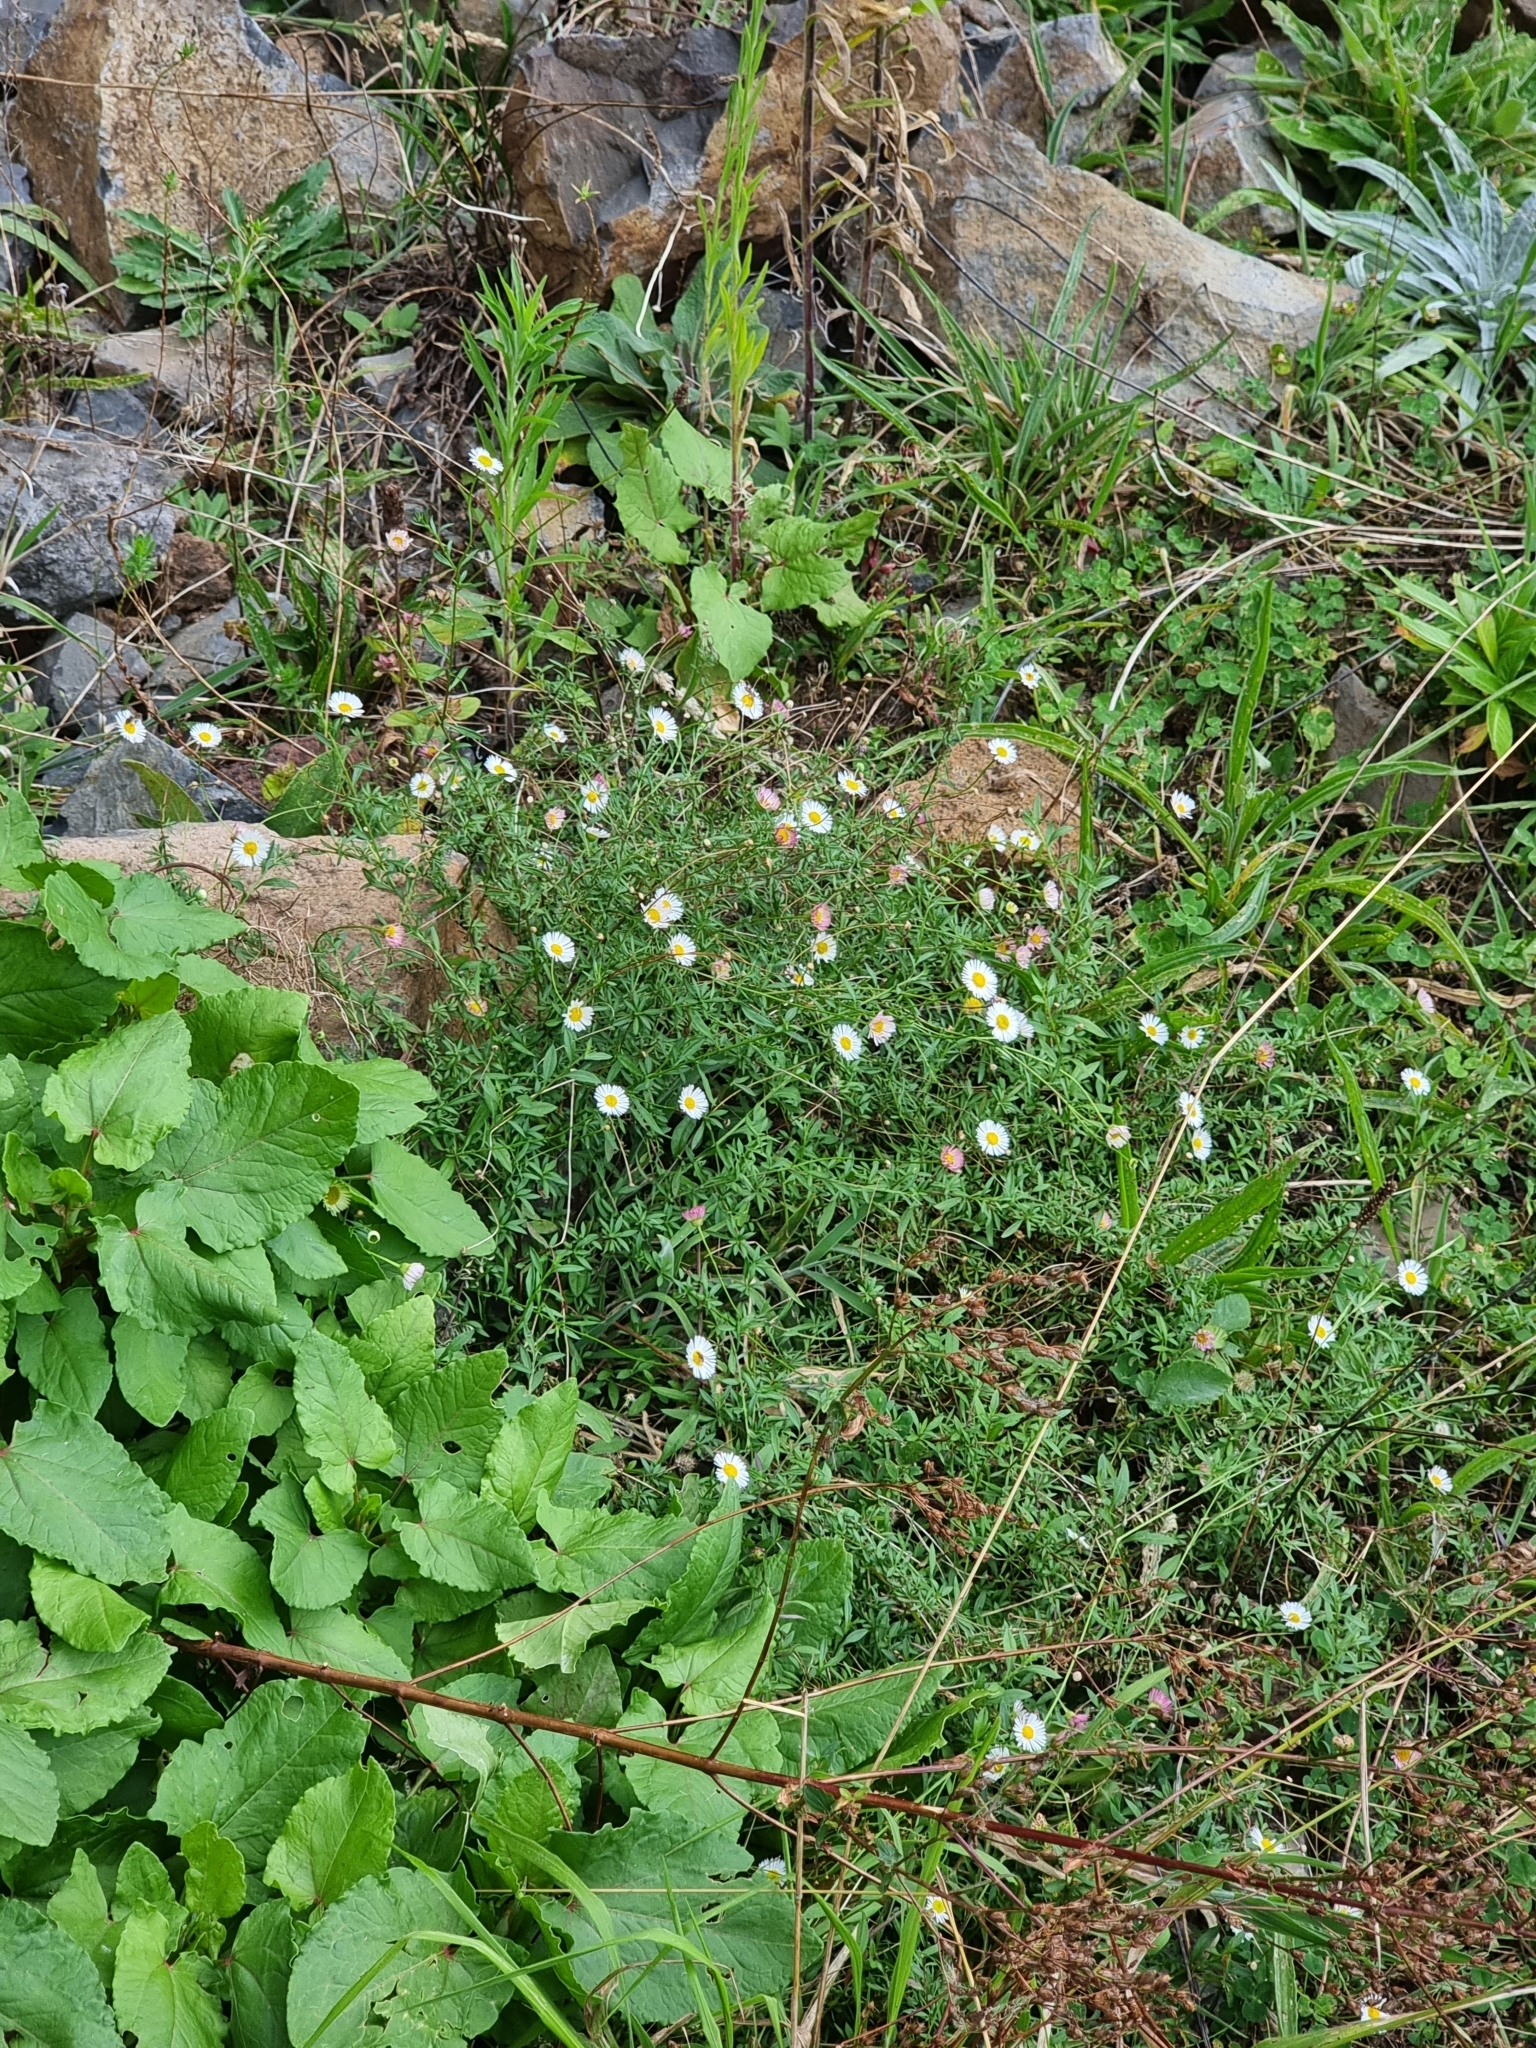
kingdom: Plantae
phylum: Tracheophyta
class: Magnoliopsida
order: Asterales
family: Asteraceae
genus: Erigeron
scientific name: Erigeron karvinskianus
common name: Mexican fleabane
